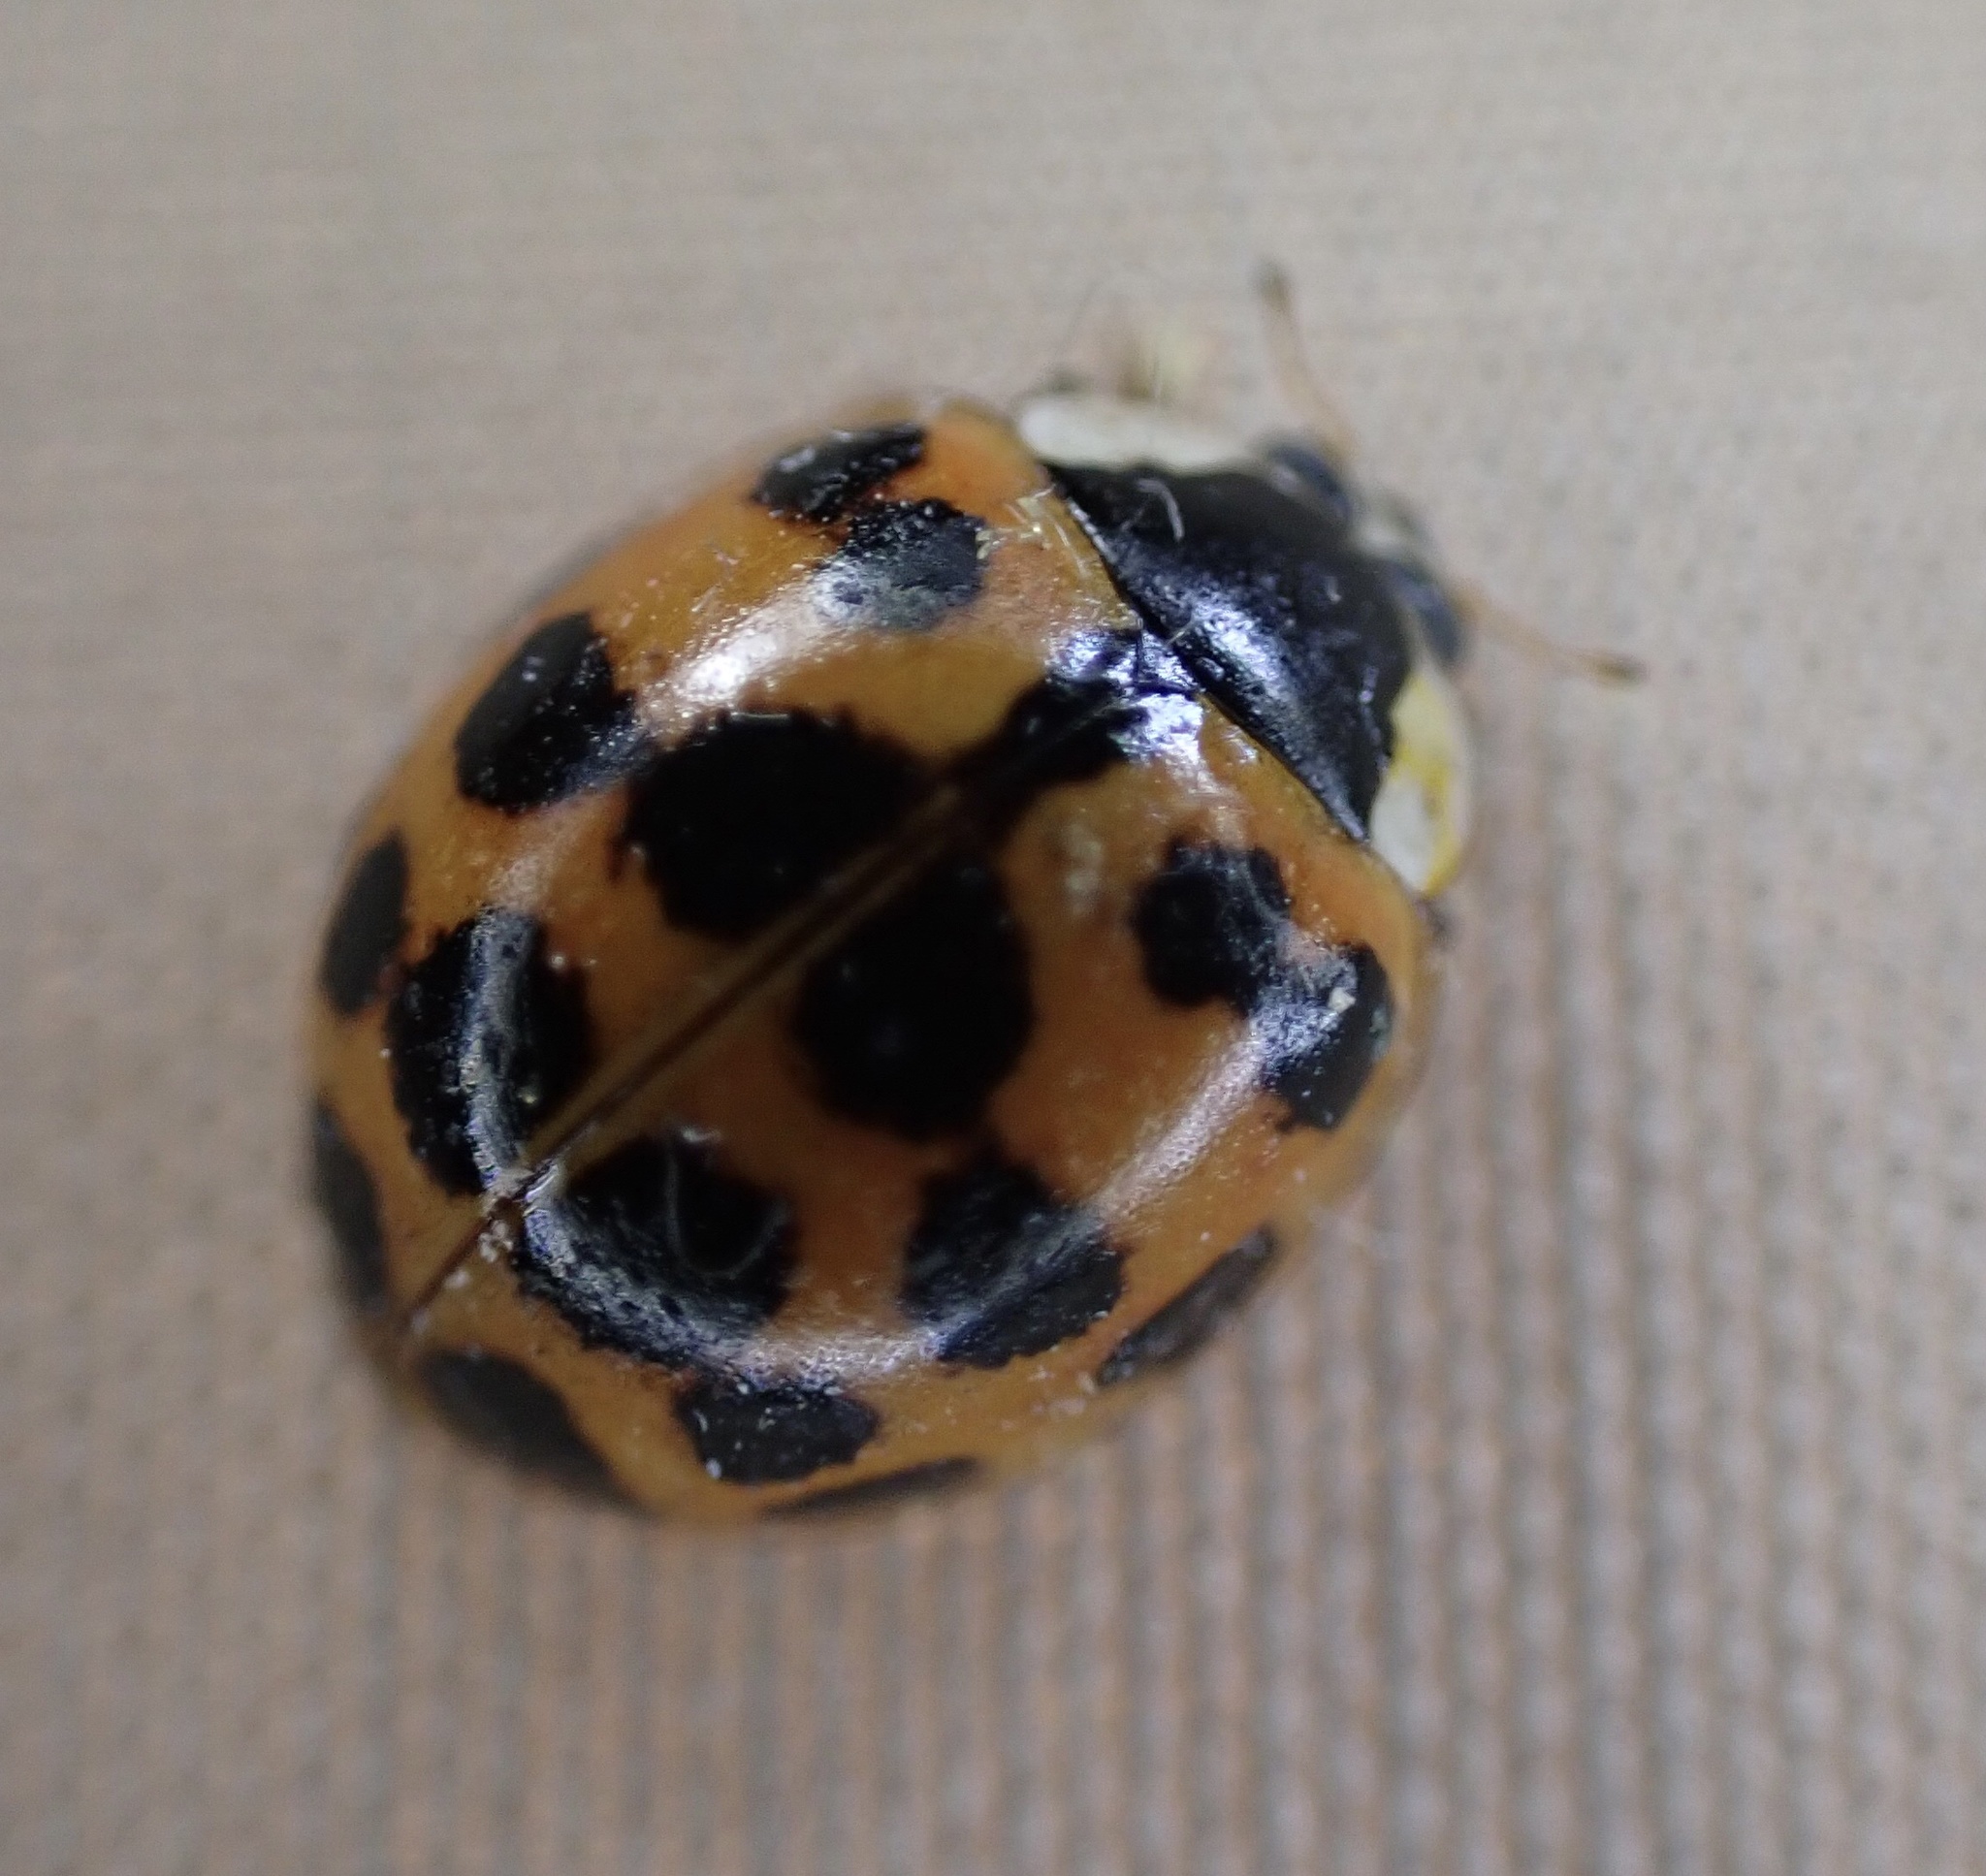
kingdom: Animalia
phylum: Arthropoda
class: Insecta
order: Coleoptera
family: Coccinellidae
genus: Harmonia
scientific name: Harmonia axyridis
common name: Harlequin ladybird
